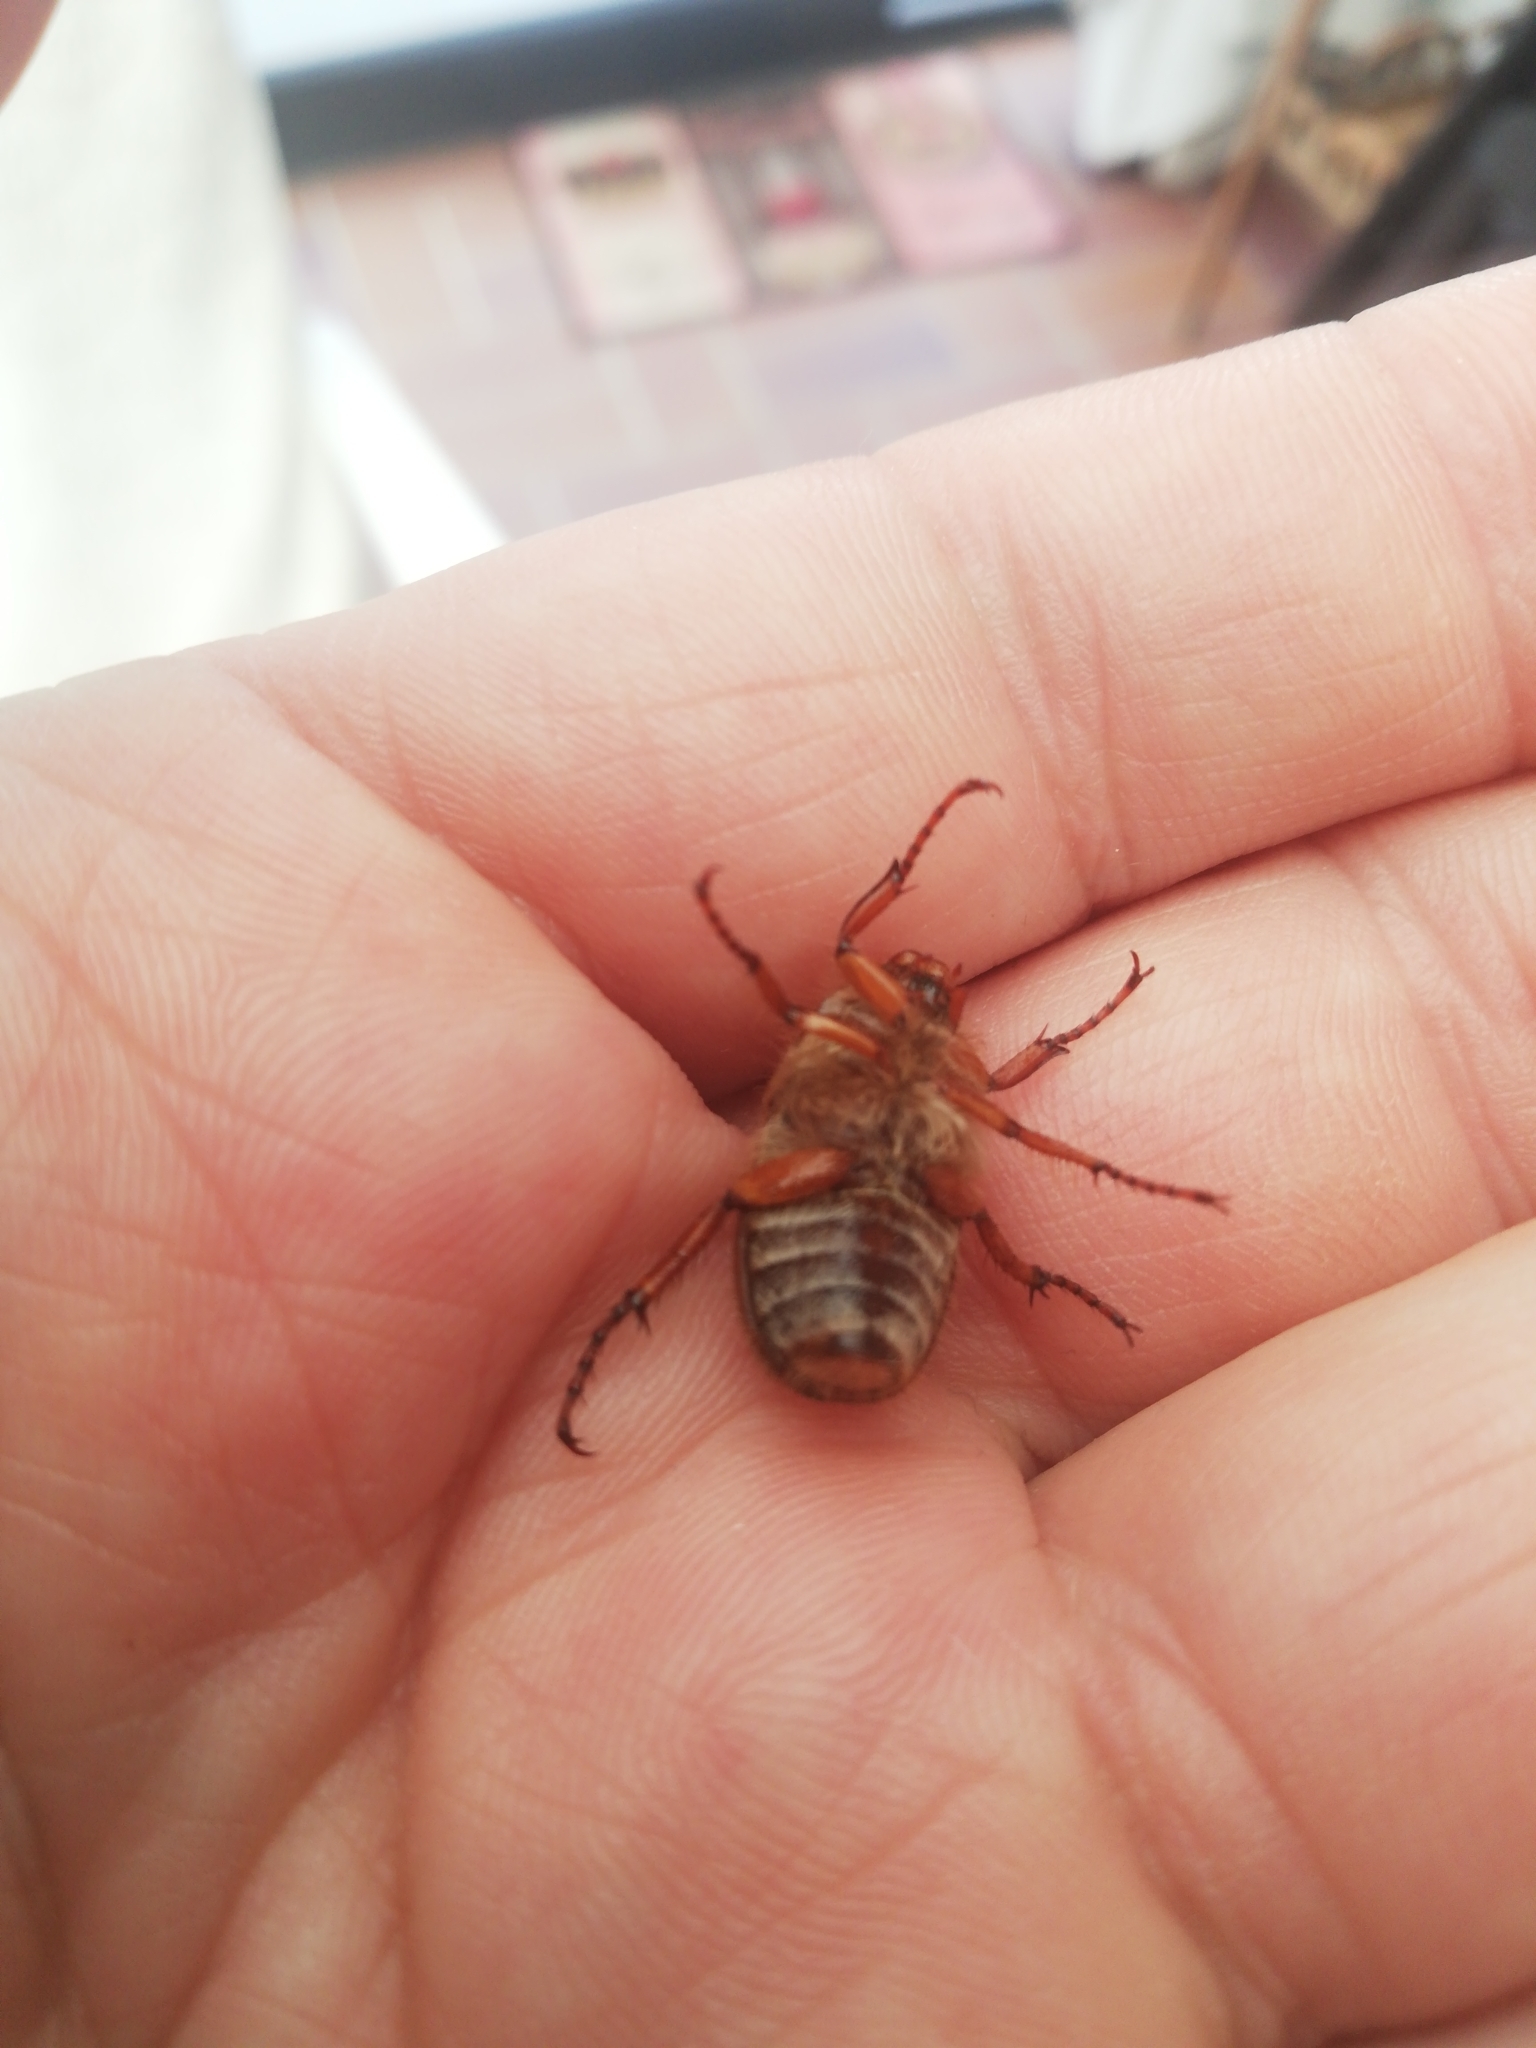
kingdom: Animalia
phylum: Arthropoda
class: Insecta
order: Coleoptera
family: Scarabaeidae
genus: Amphimallon
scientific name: Amphimallon solstitiale
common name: Summer chafer
